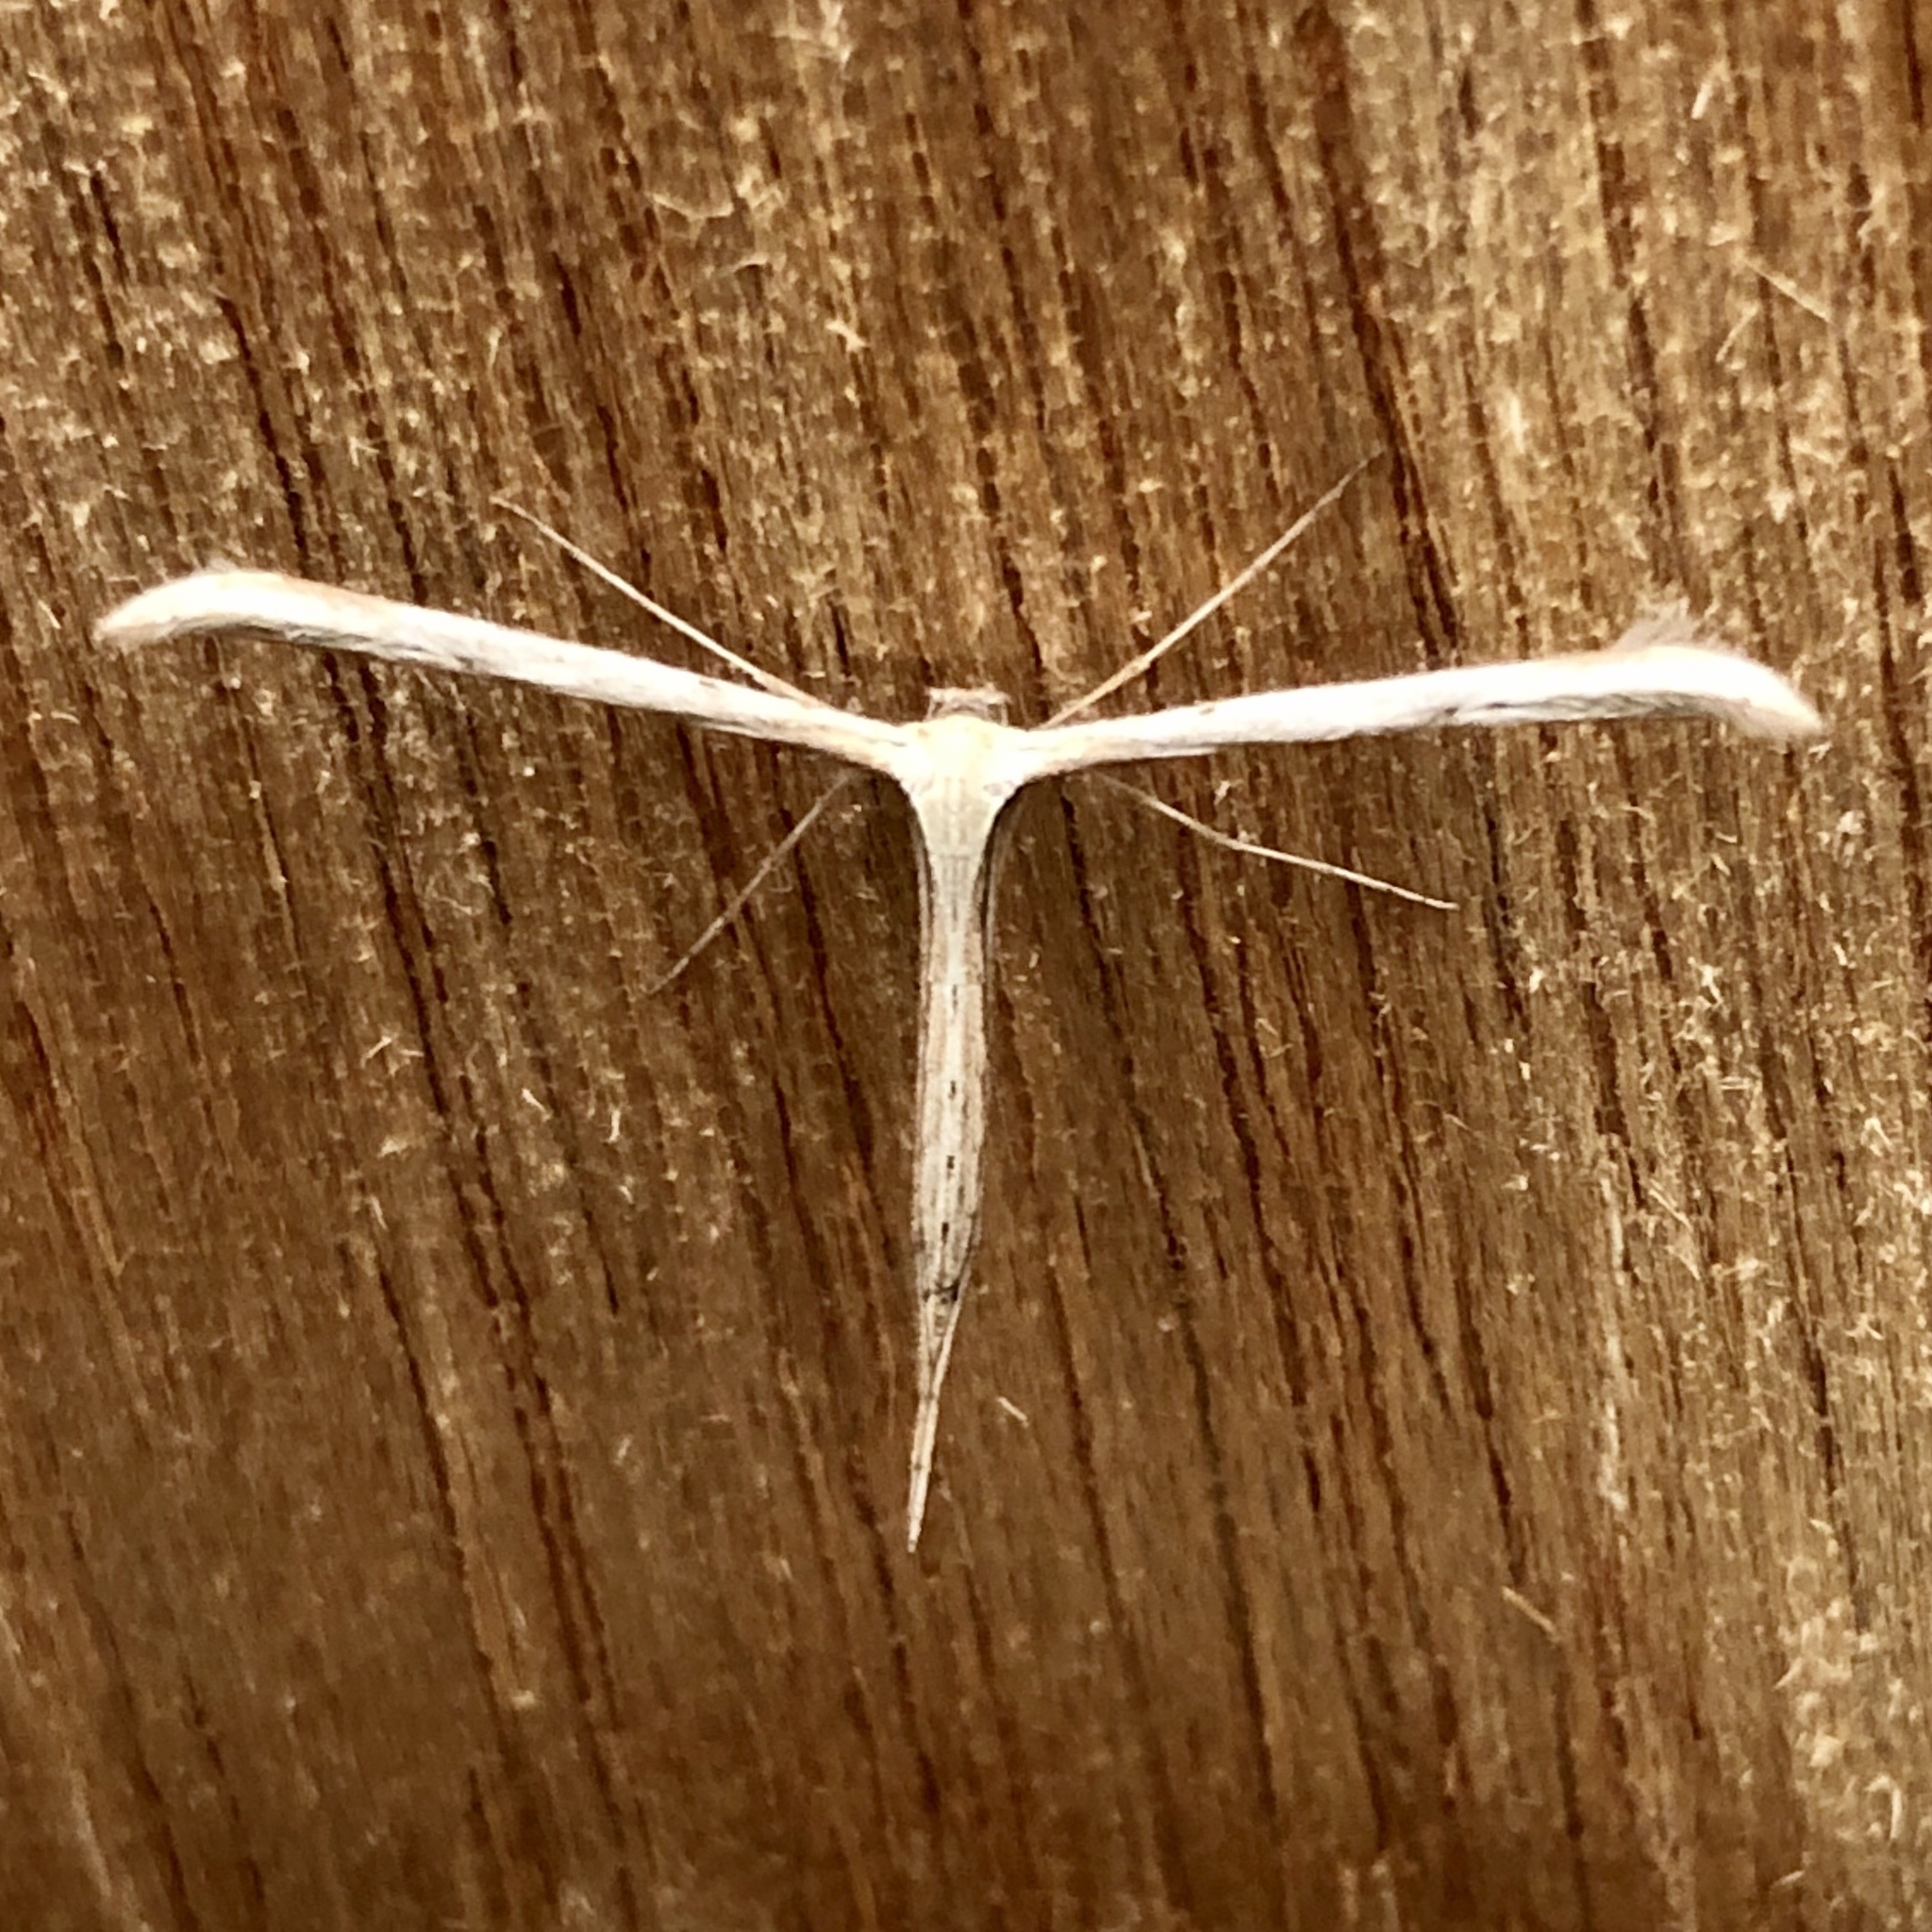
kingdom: Animalia
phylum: Arthropoda
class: Insecta
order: Lepidoptera
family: Pterophoridae
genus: Emmelina
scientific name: Emmelina monodactyla
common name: Common plume
